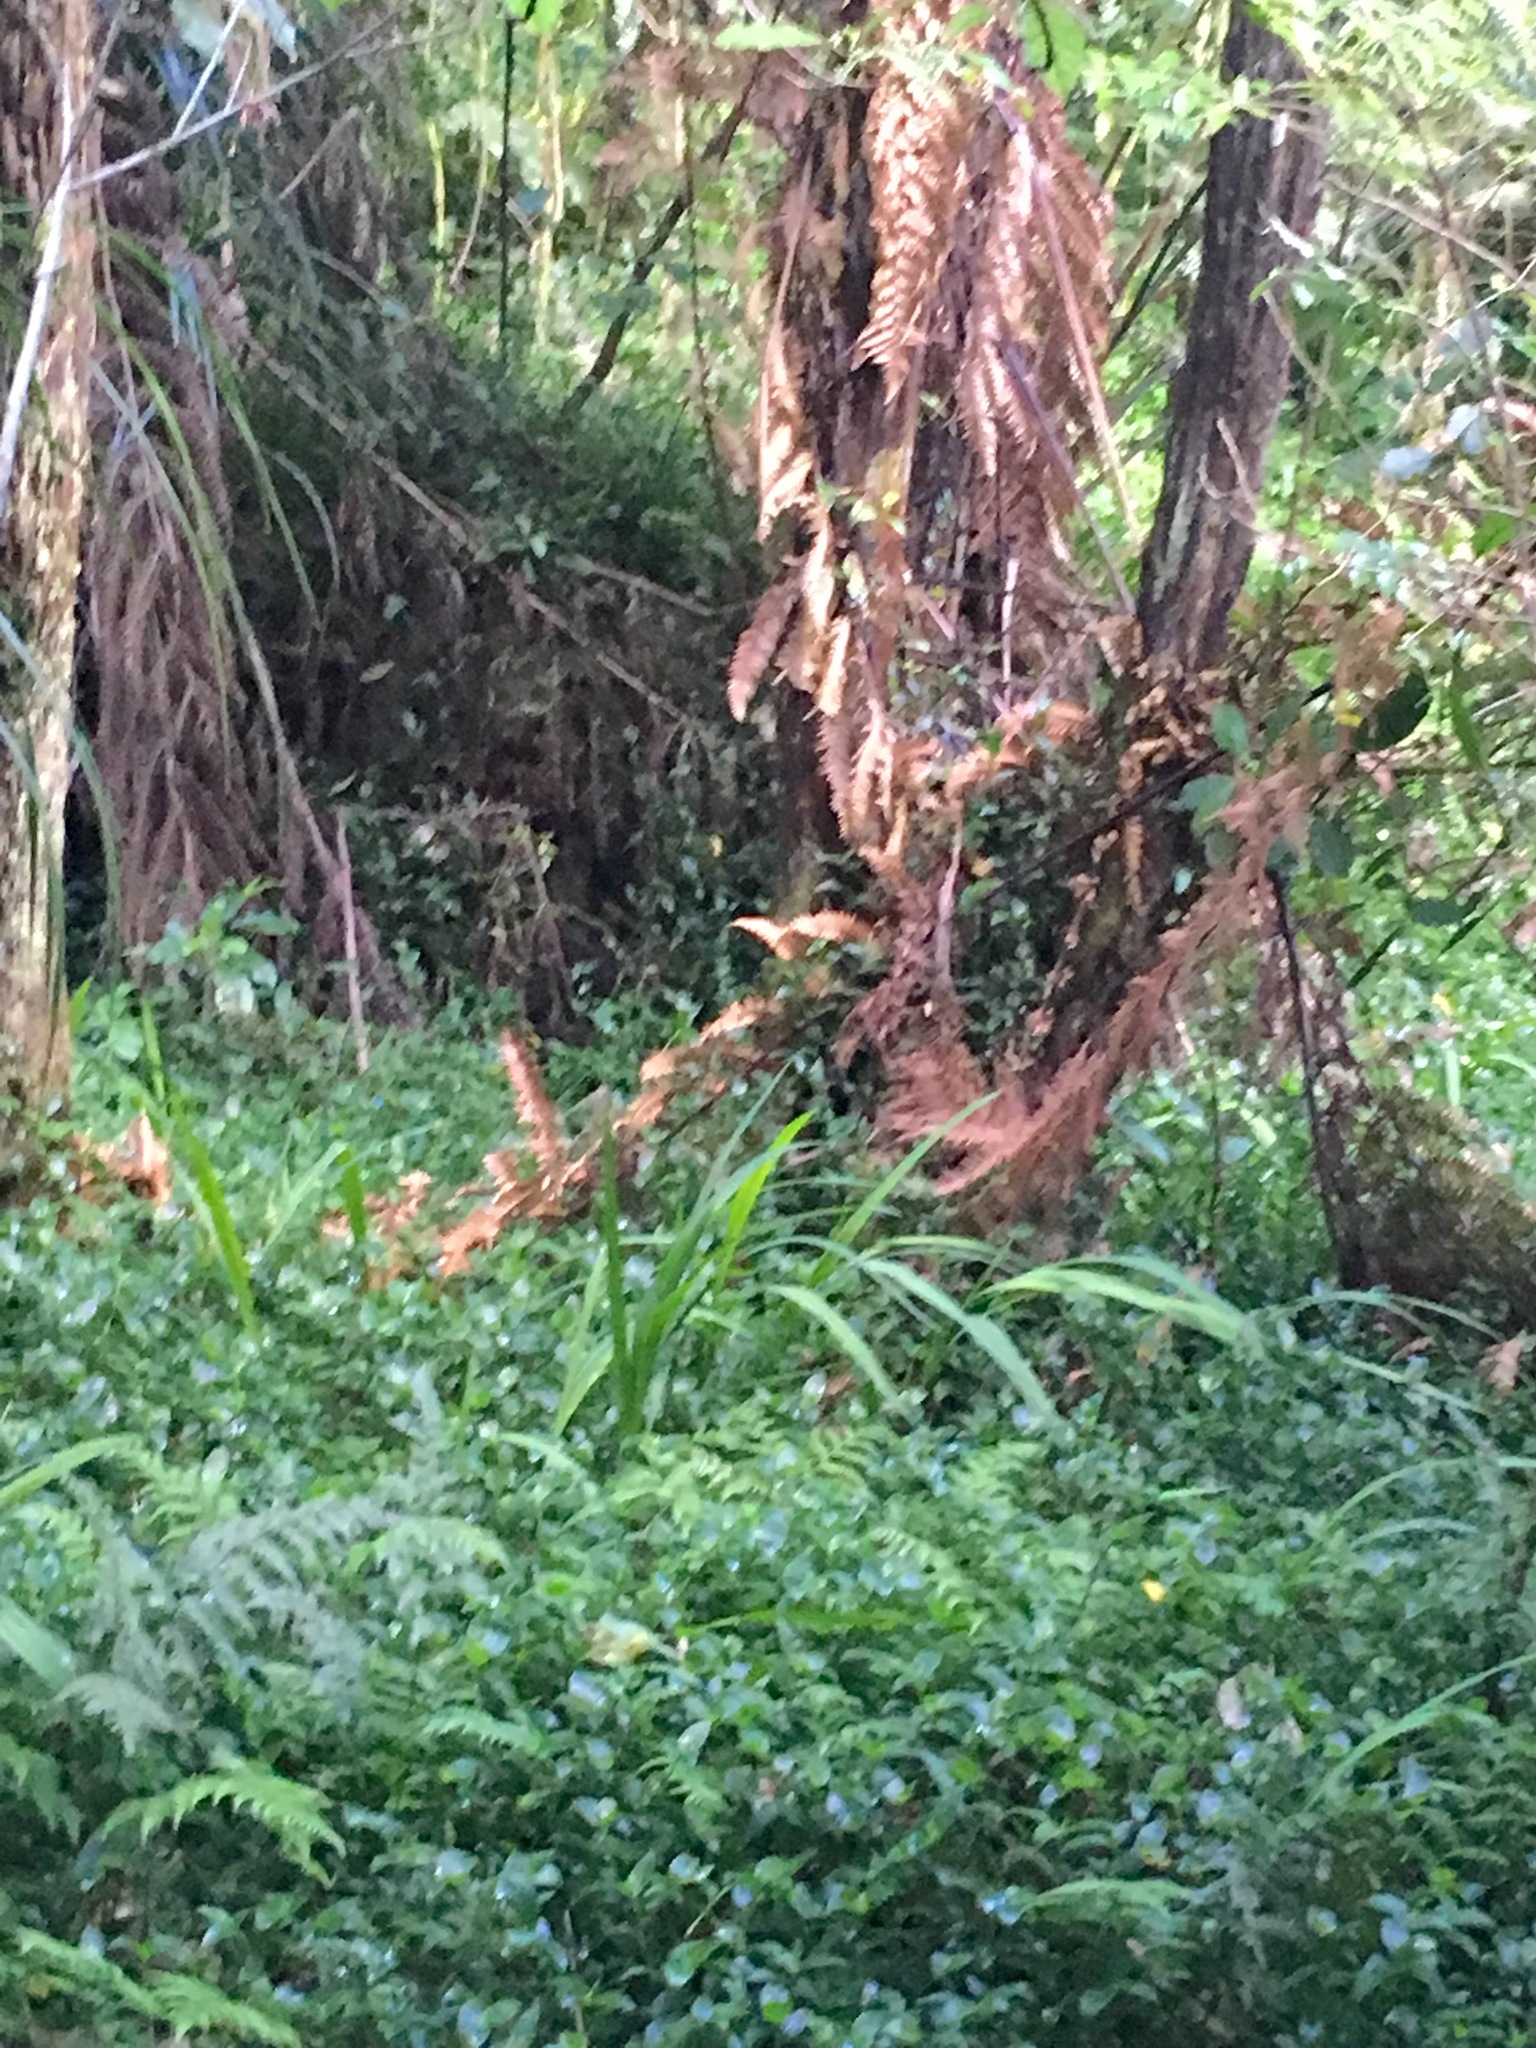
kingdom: Plantae
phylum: Tracheophyta
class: Liliopsida
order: Asparagales
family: Iridaceae
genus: Crocosmia
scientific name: Crocosmia crocosmiiflora
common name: Montbretia
